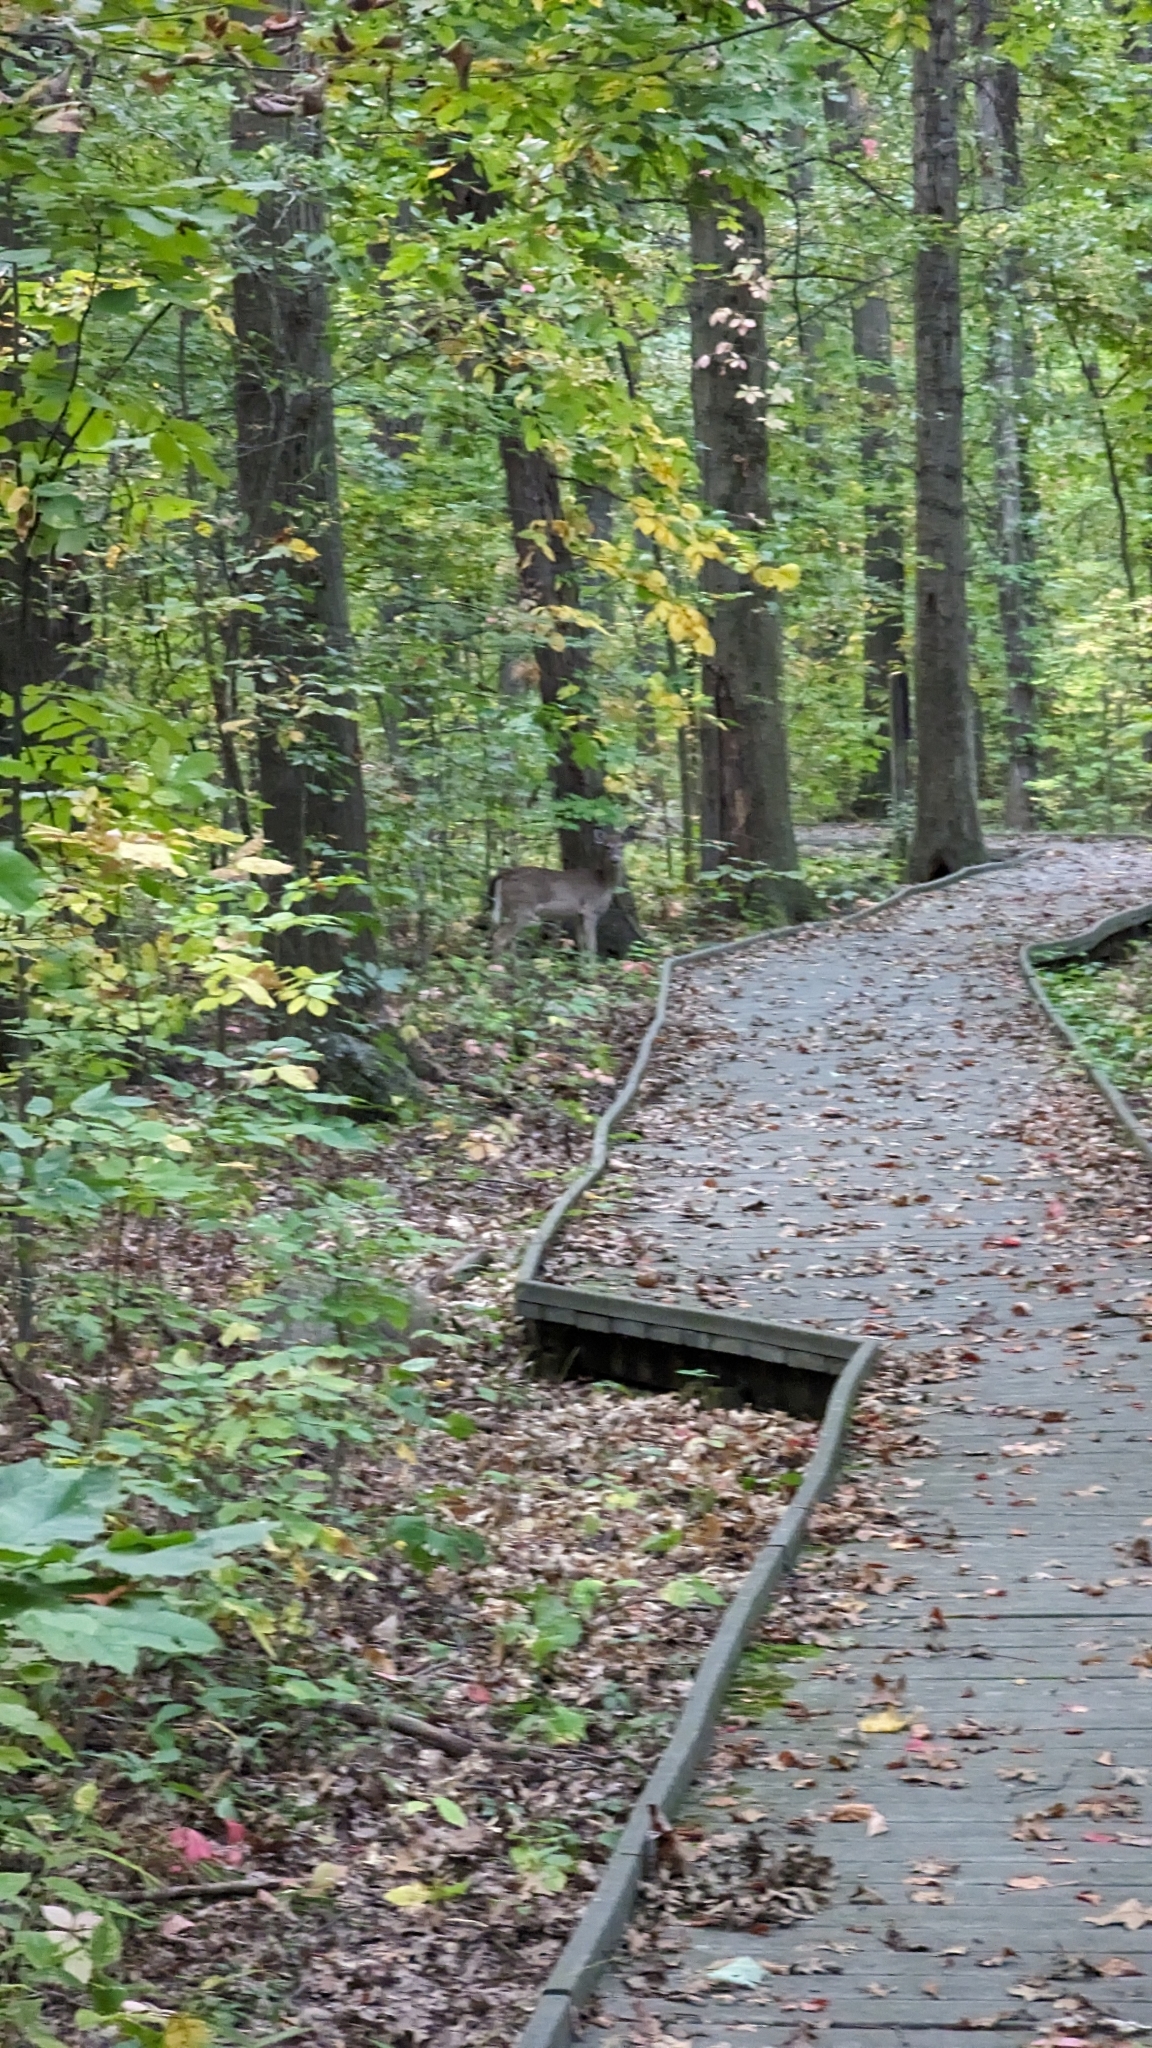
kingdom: Animalia
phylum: Chordata
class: Mammalia
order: Artiodactyla
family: Cervidae
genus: Odocoileus
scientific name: Odocoileus virginianus
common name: White-tailed deer
